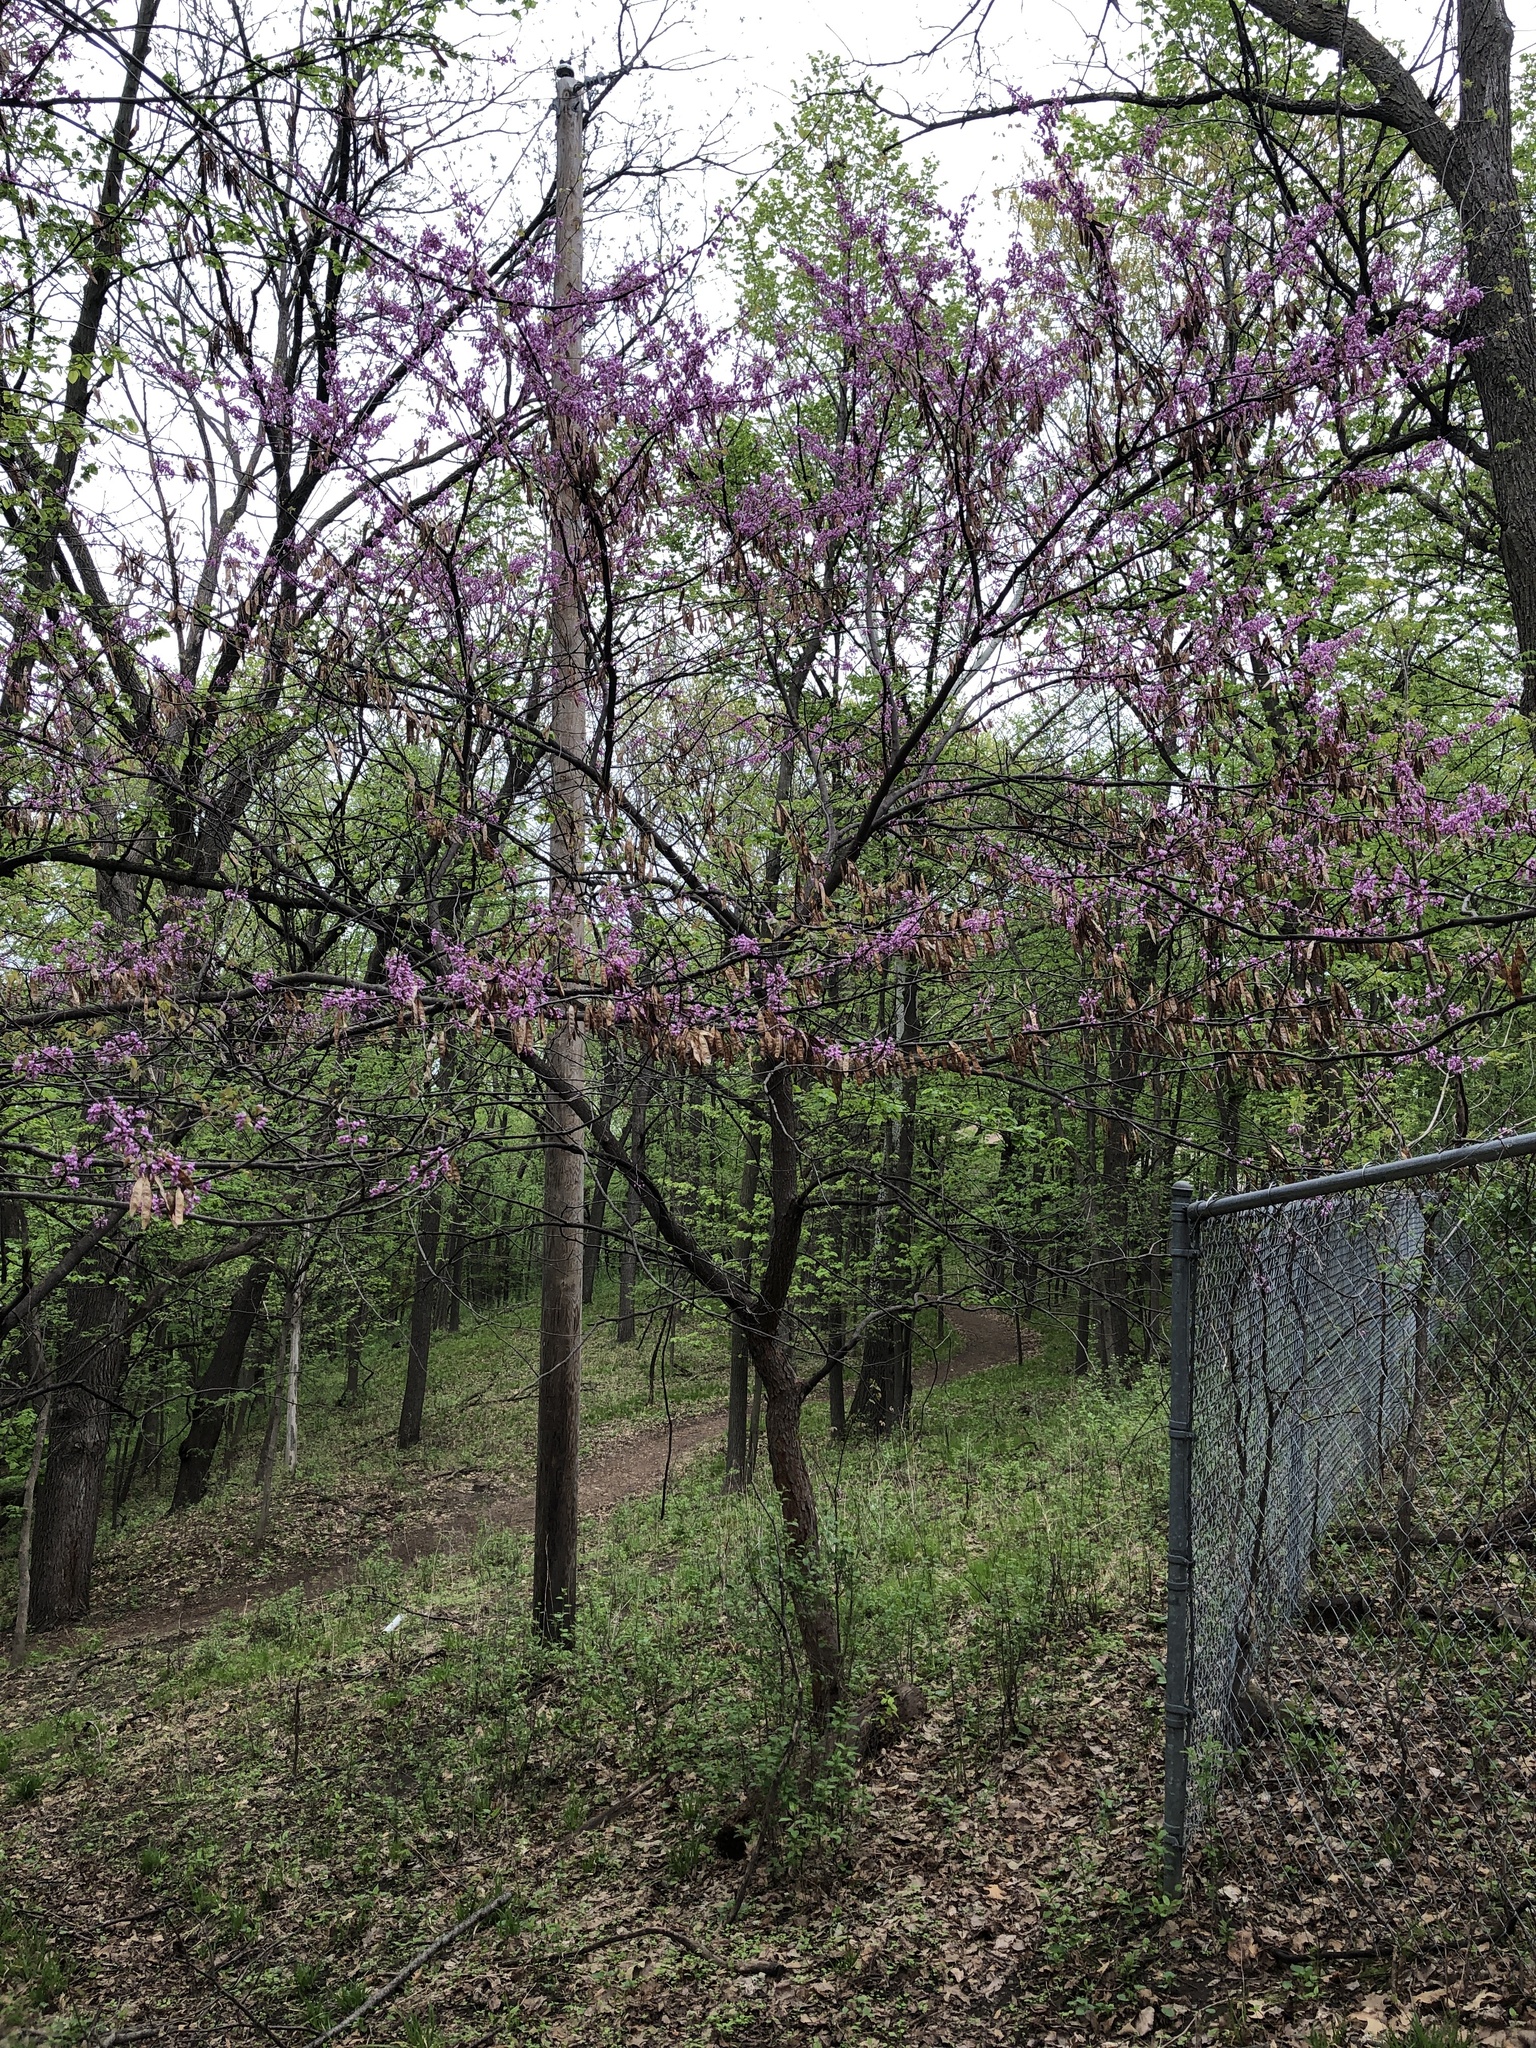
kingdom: Plantae
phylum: Tracheophyta
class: Magnoliopsida
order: Fabales
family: Fabaceae
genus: Cercis
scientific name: Cercis canadensis
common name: Eastern redbud
